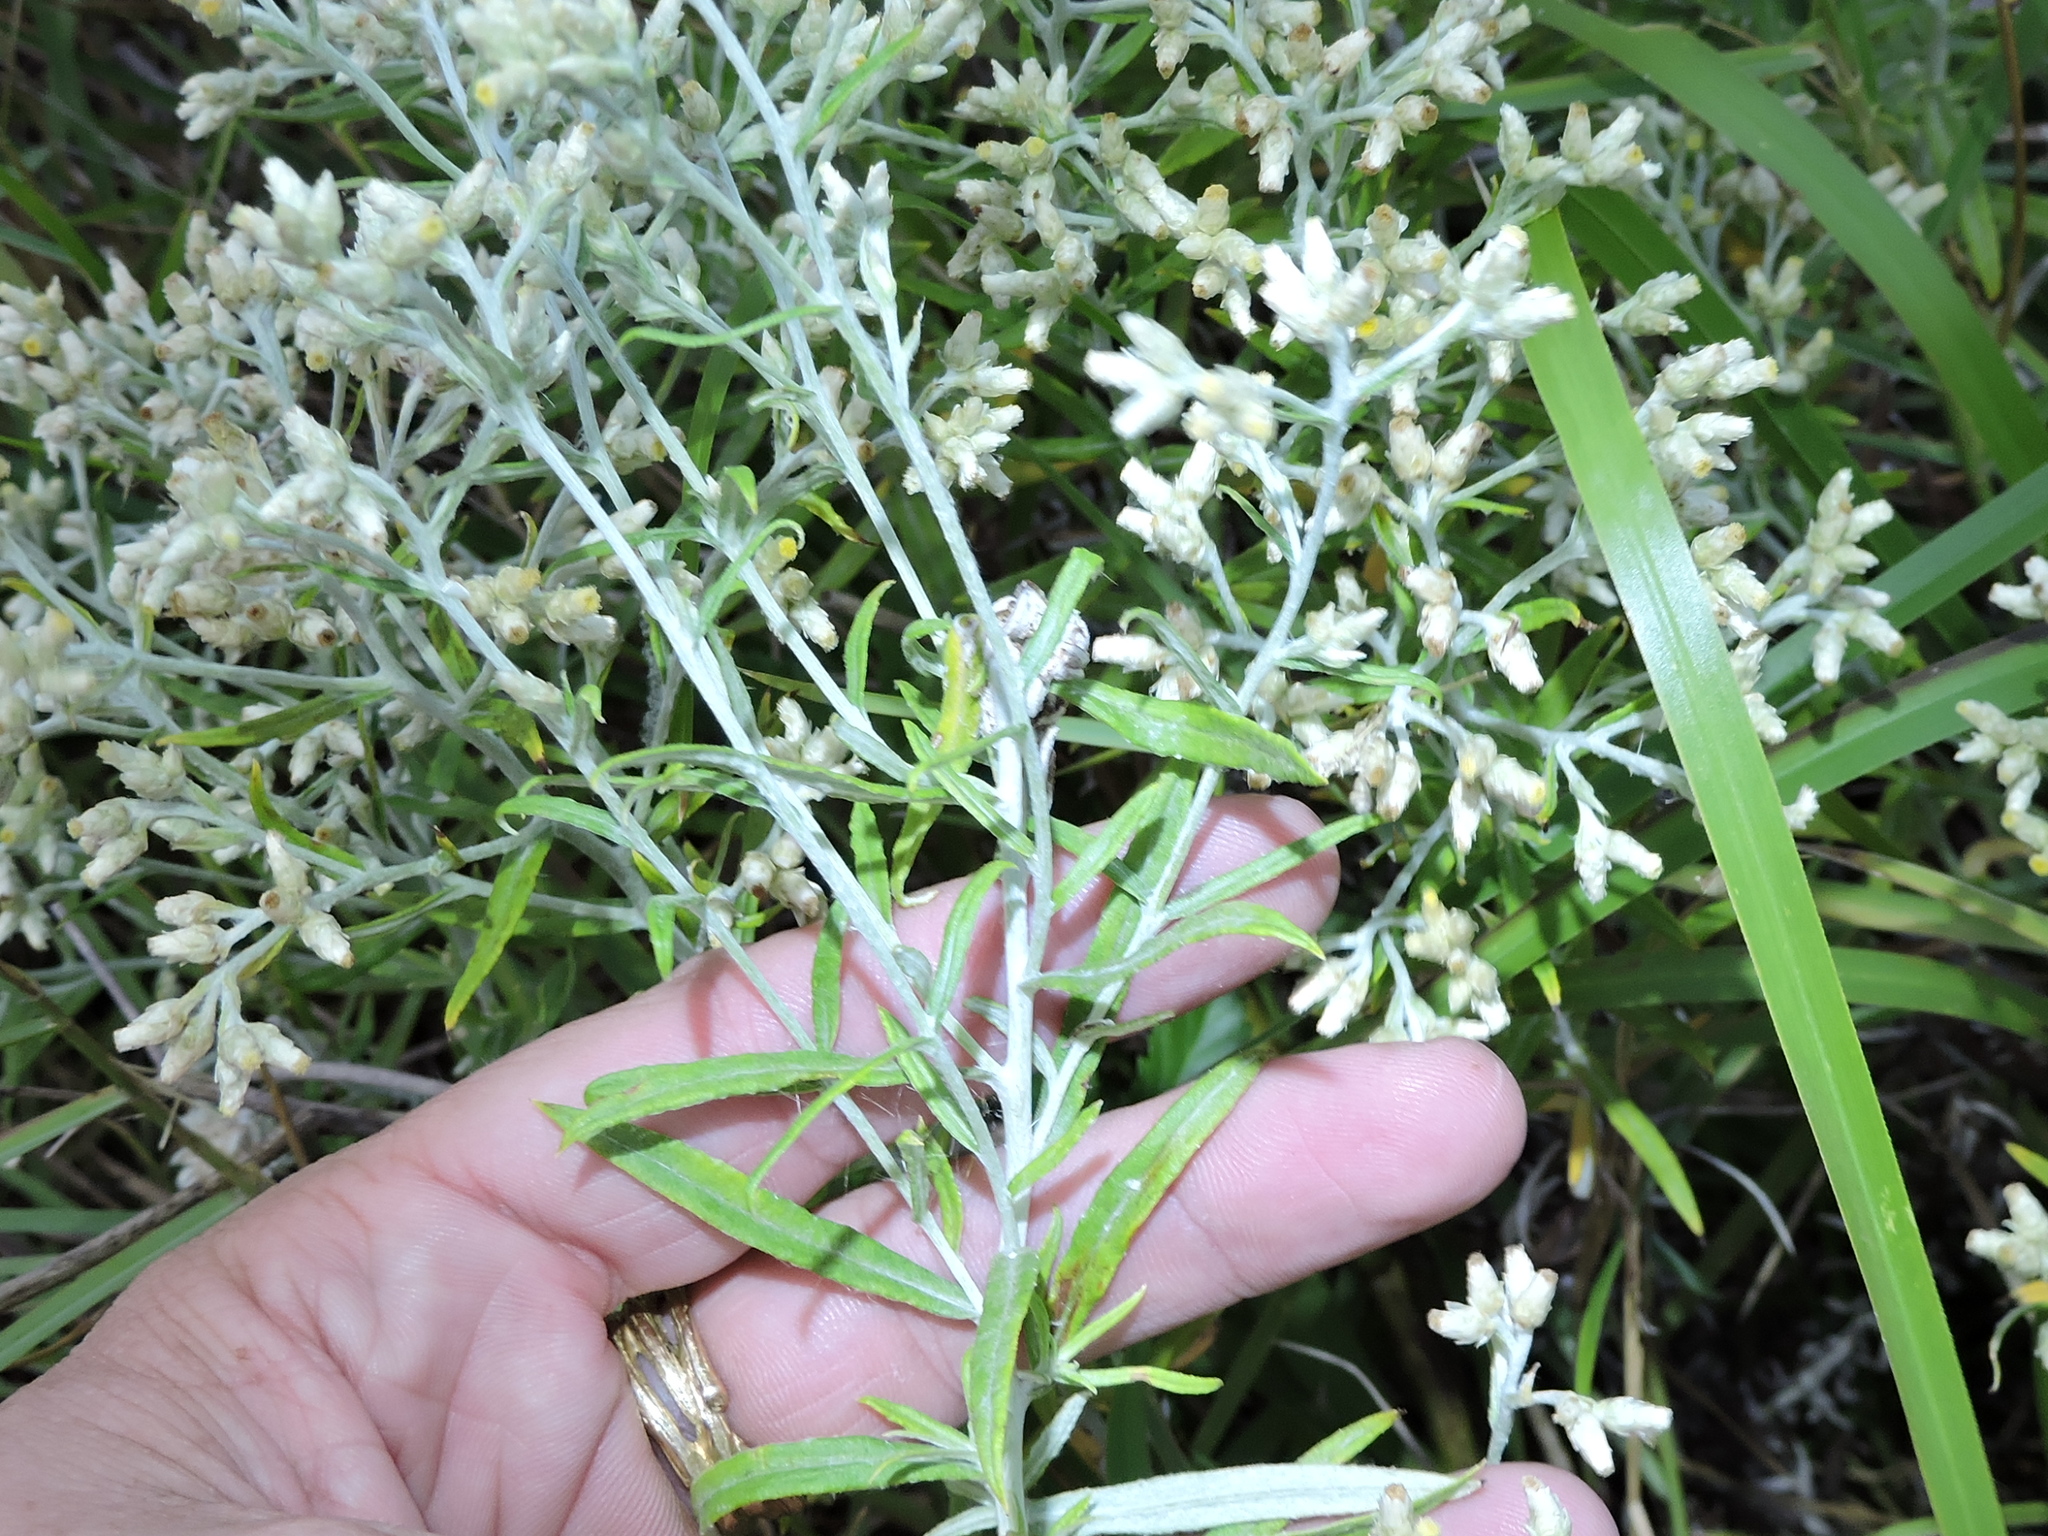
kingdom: Plantae
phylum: Tracheophyta
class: Magnoliopsida
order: Asterales
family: Asteraceae
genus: Pseudognaphalium
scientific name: Pseudognaphalium obtusifolium
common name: Eastern rabbit-tobacco
